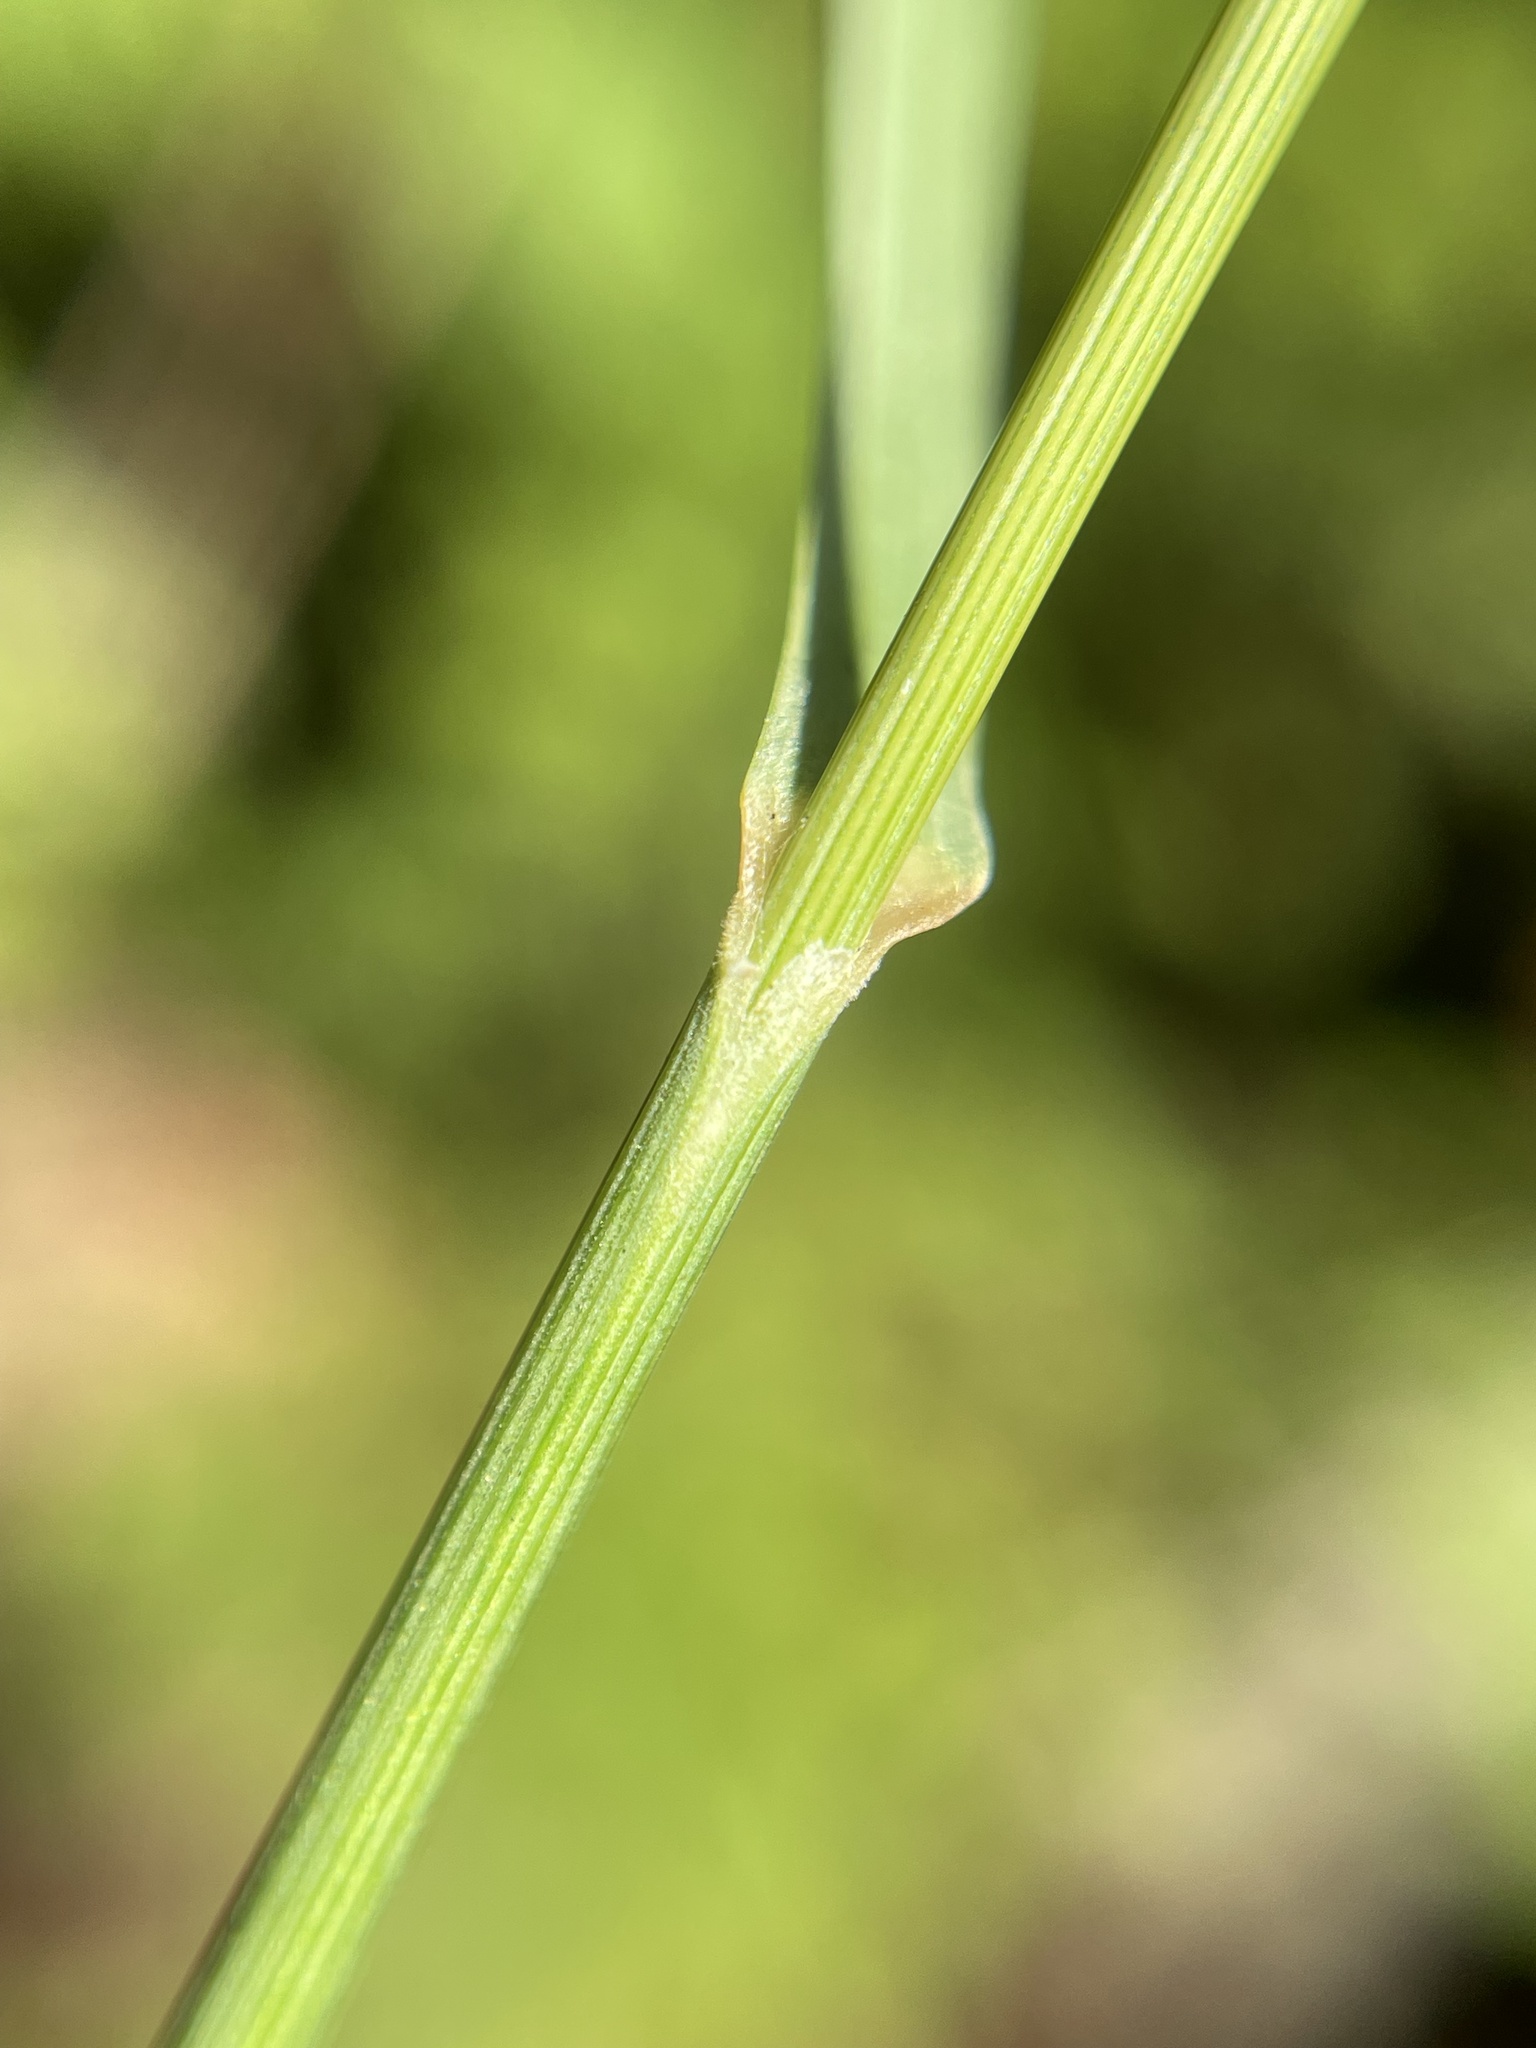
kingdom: Plantae
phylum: Tracheophyta
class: Liliopsida
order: Poales
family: Poaceae
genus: Melica
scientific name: Melica harfordii
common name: Harford's melic
